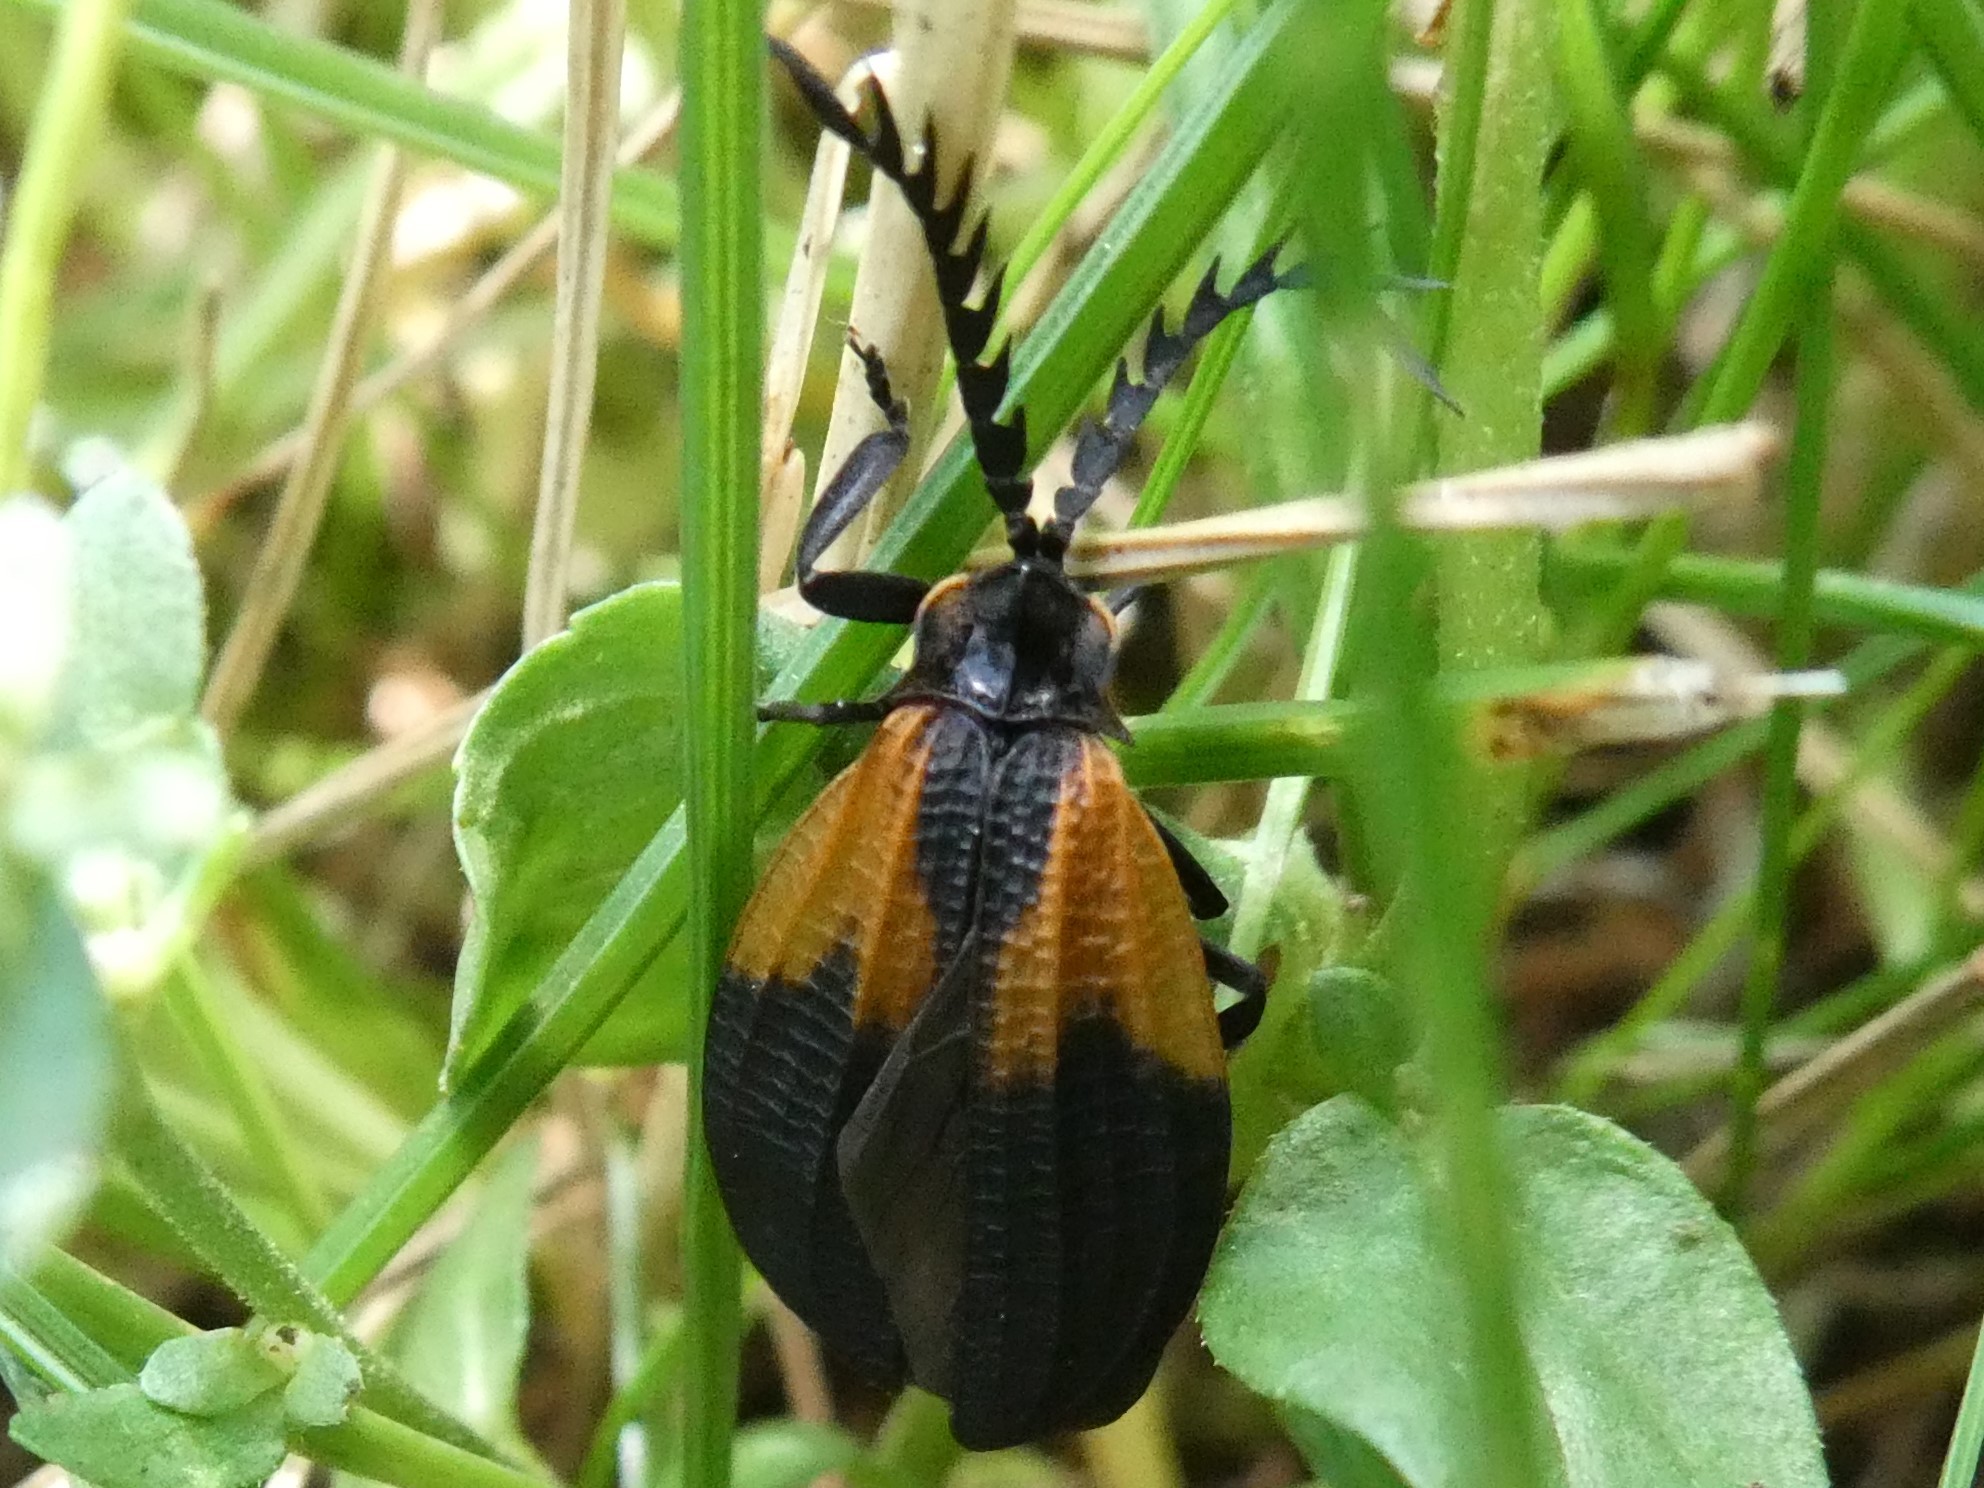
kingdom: Animalia
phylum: Arthropoda
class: Insecta
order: Coleoptera
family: Lycidae
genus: Caenia
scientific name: Caenia dimidiata
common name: Terminal net-winged beetle
